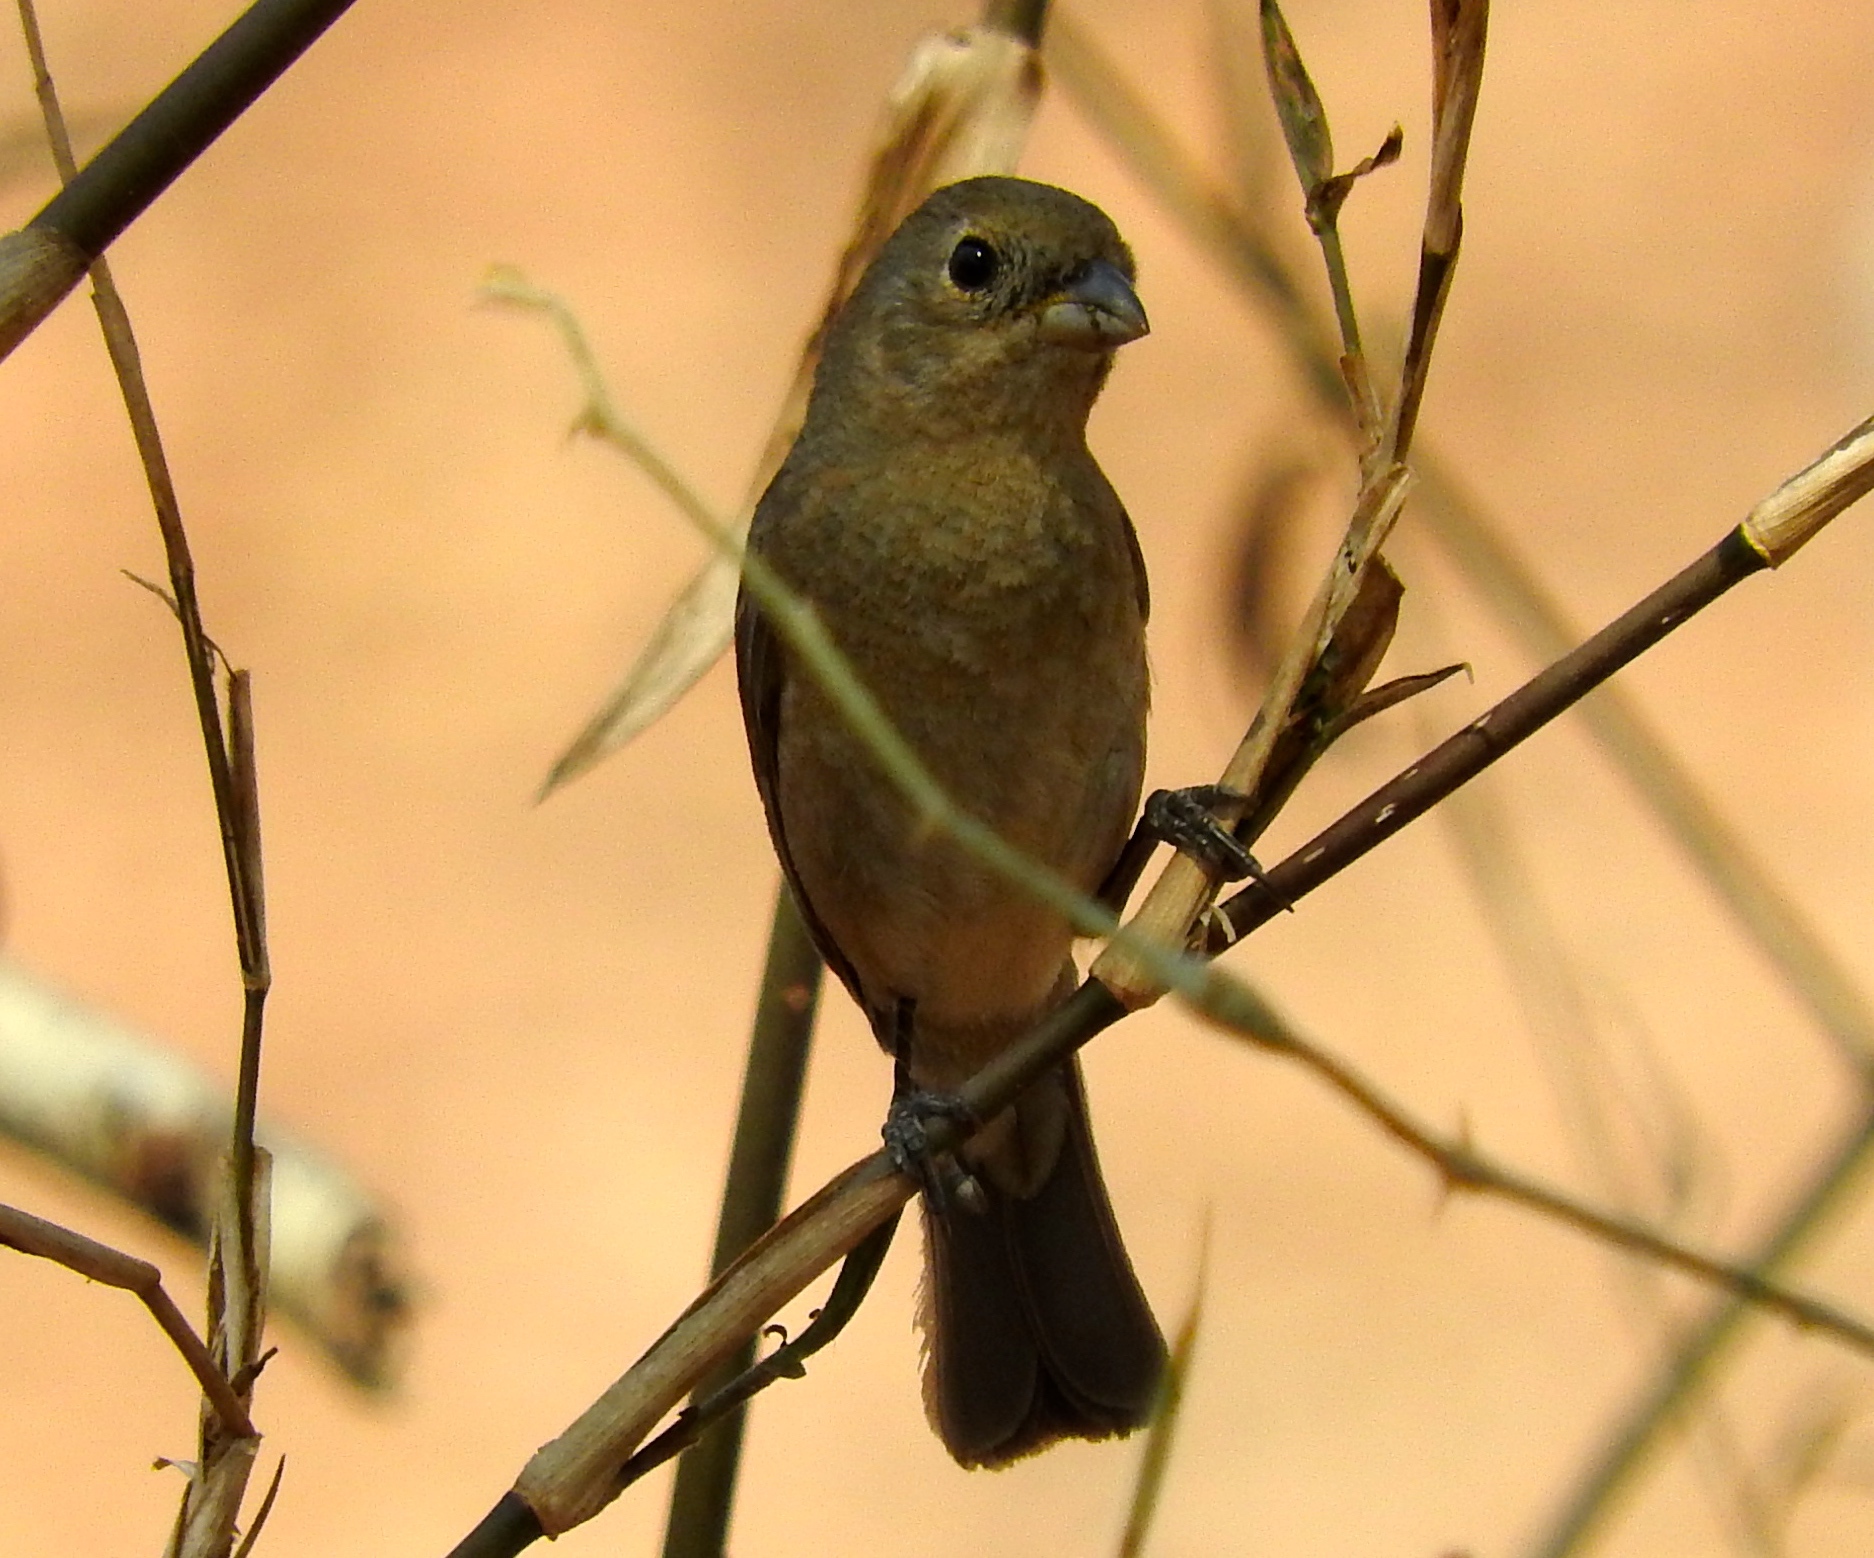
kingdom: Animalia
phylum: Chordata
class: Aves
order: Passeriformes
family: Cardinalidae
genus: Passerina
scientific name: Passerina versicolor
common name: Varied bunting
